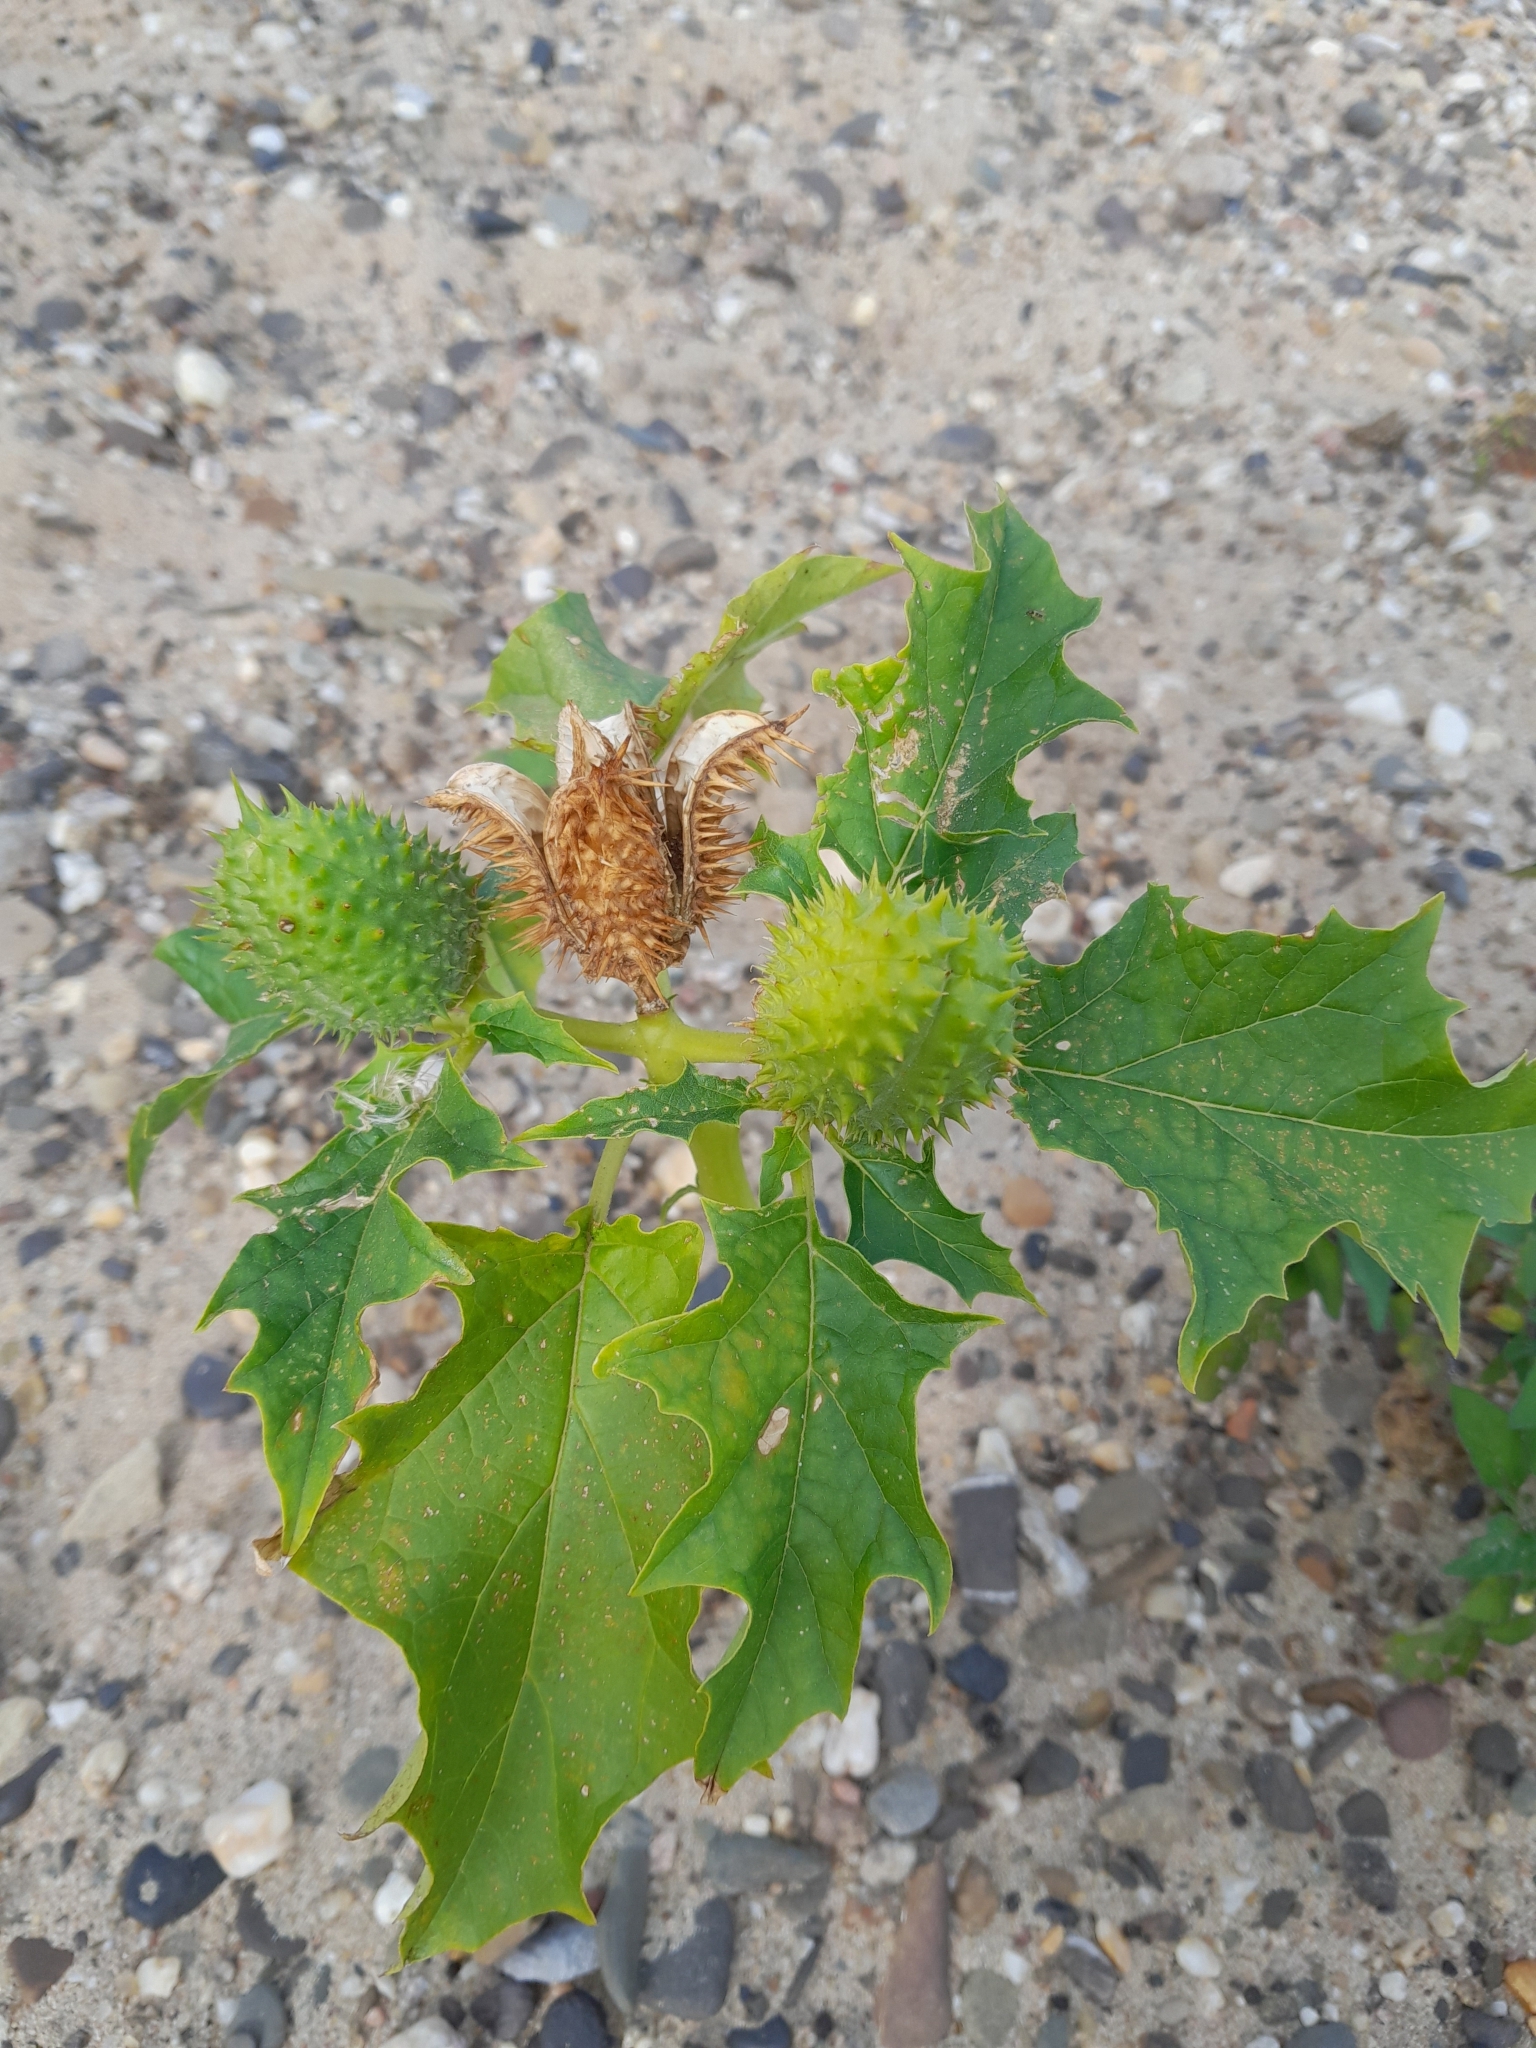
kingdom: Plantae
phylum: Tracheophyta
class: Magnoliopsida
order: Solanales
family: Solanaceae
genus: Datura
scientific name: Datura stramonium
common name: Thorn-apple
